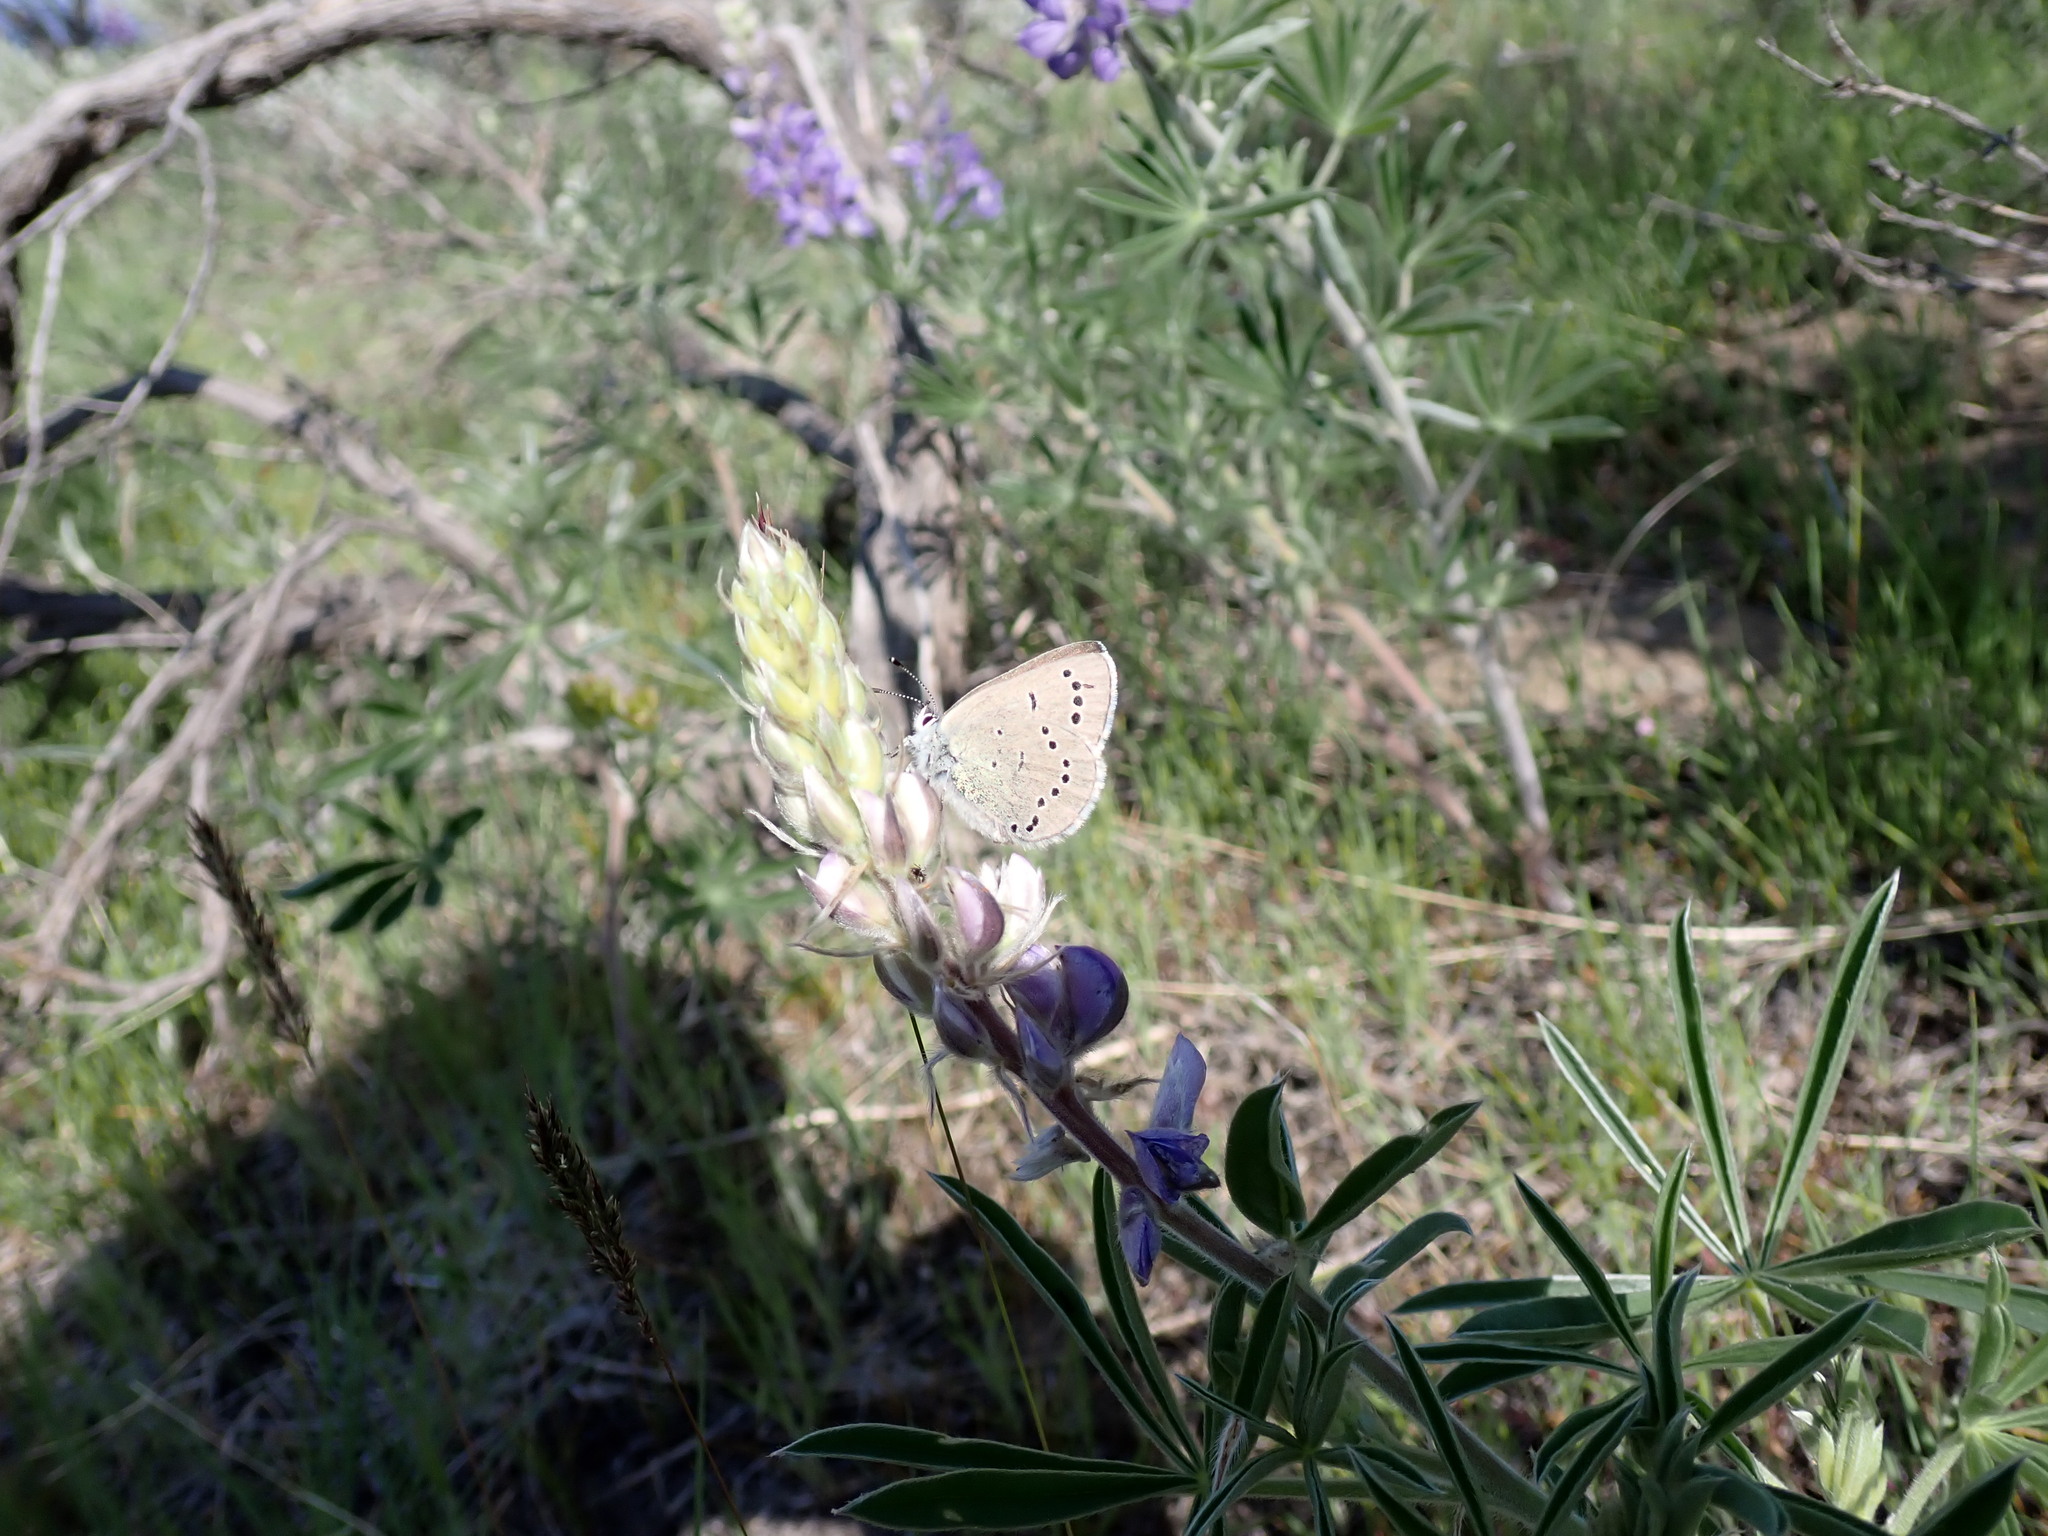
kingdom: Animalia
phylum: Arthropoda
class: Insecta
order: Lepidoptera
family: Lycaenidae
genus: Glaucopsyche
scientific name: Glaucopsyche lygdamus
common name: Silvery blue
